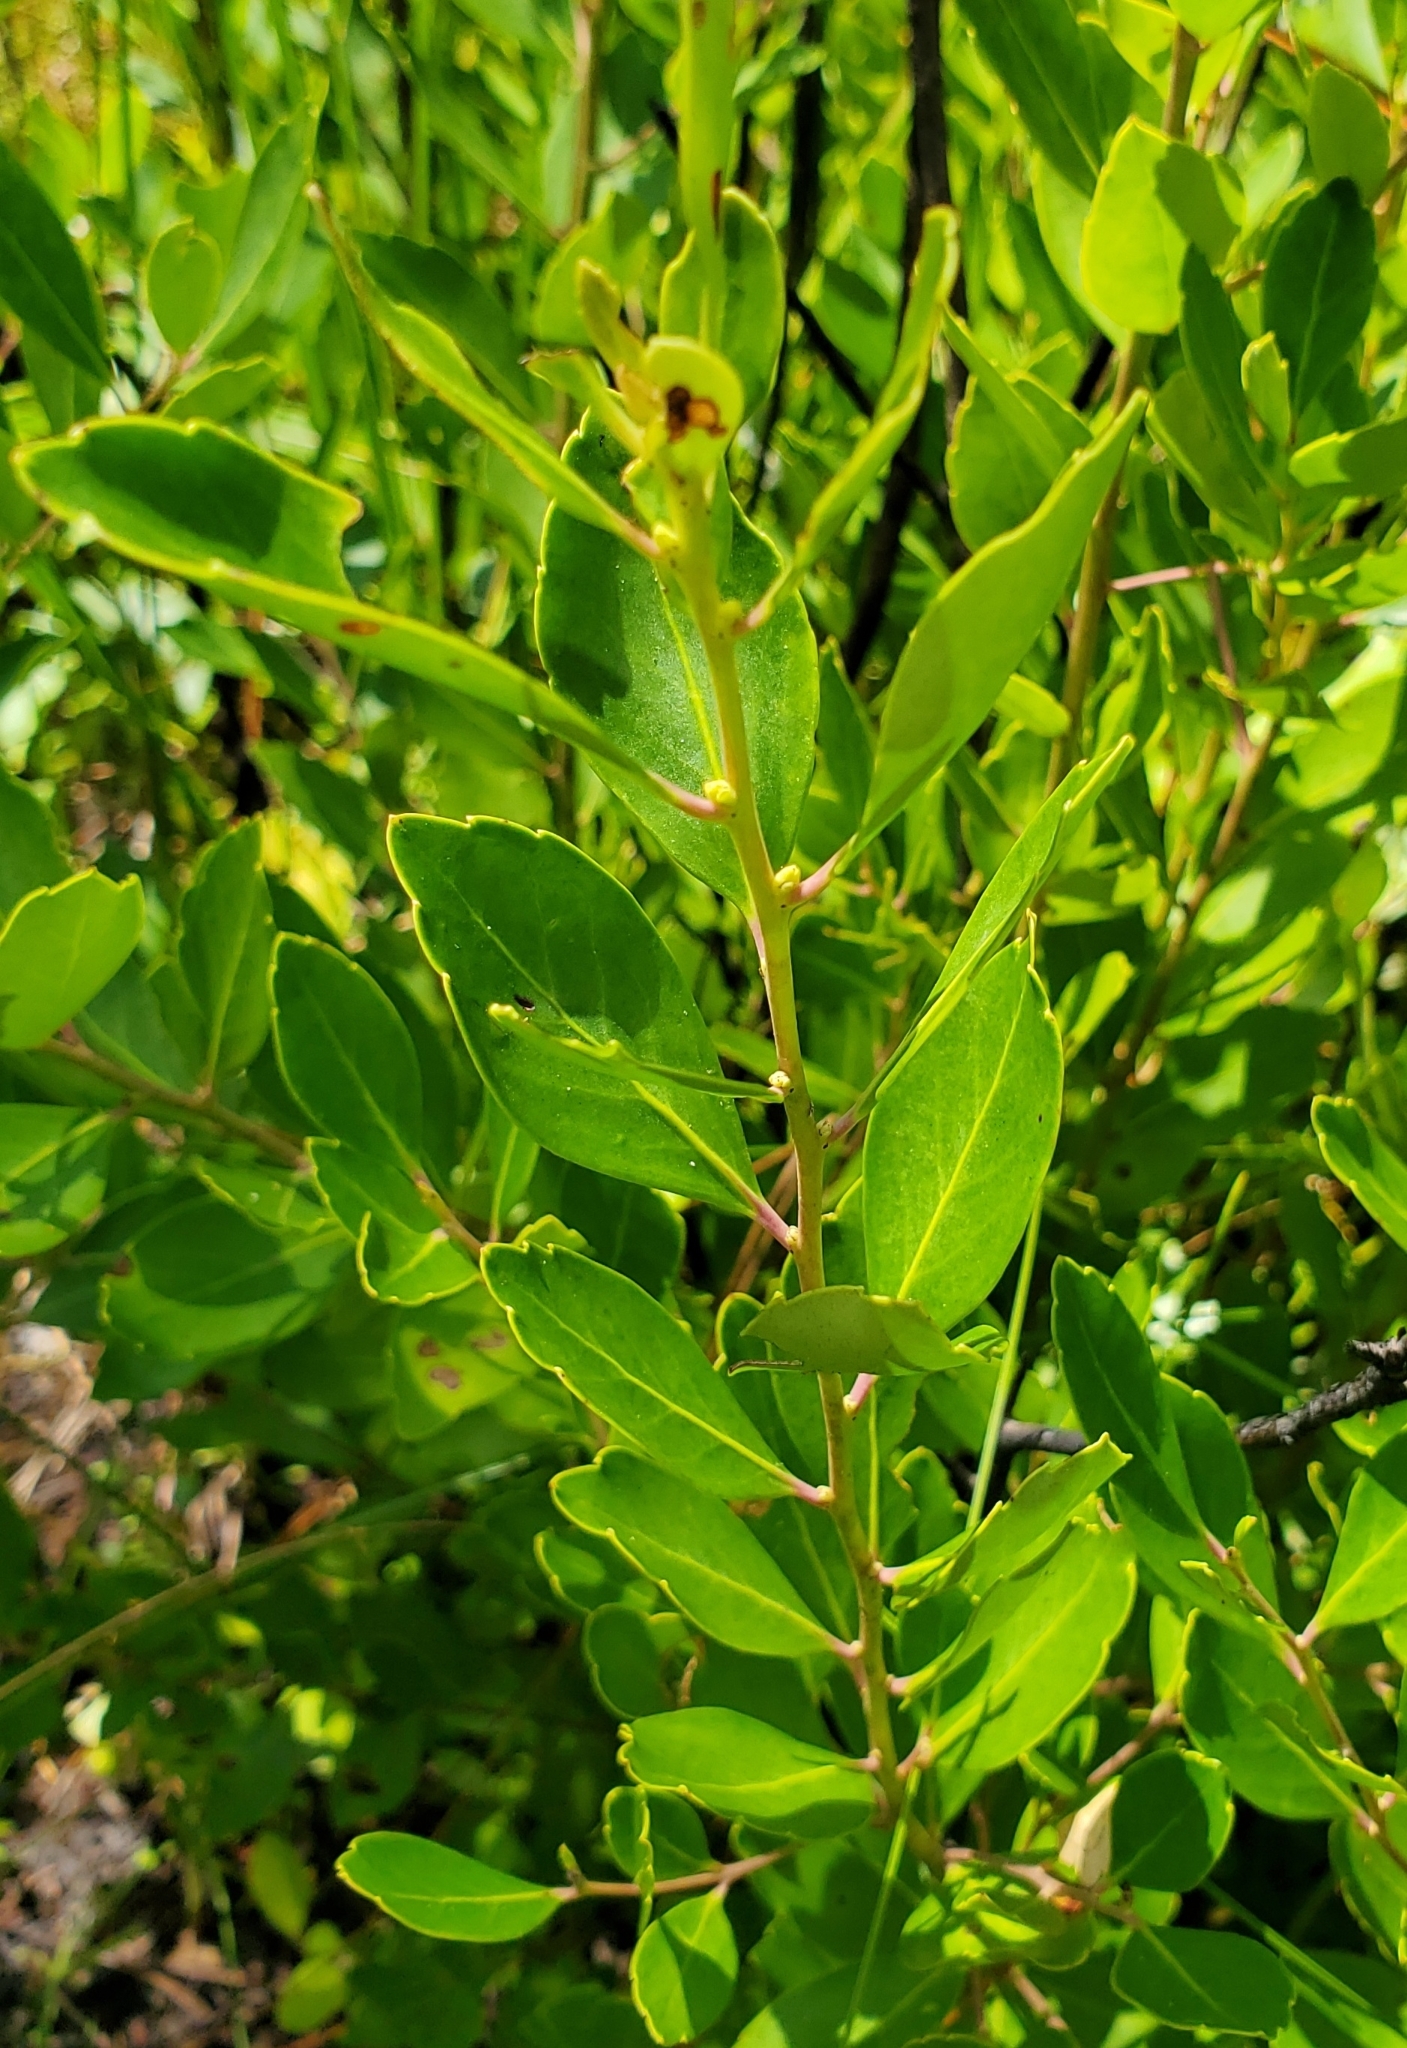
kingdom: Plantae
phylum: Tracheophyta
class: Magnoliopsida
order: Aquifoliales
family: Aquifoliaceae
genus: Ilex
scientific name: Ilex glabra
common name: Bitter gallberry
